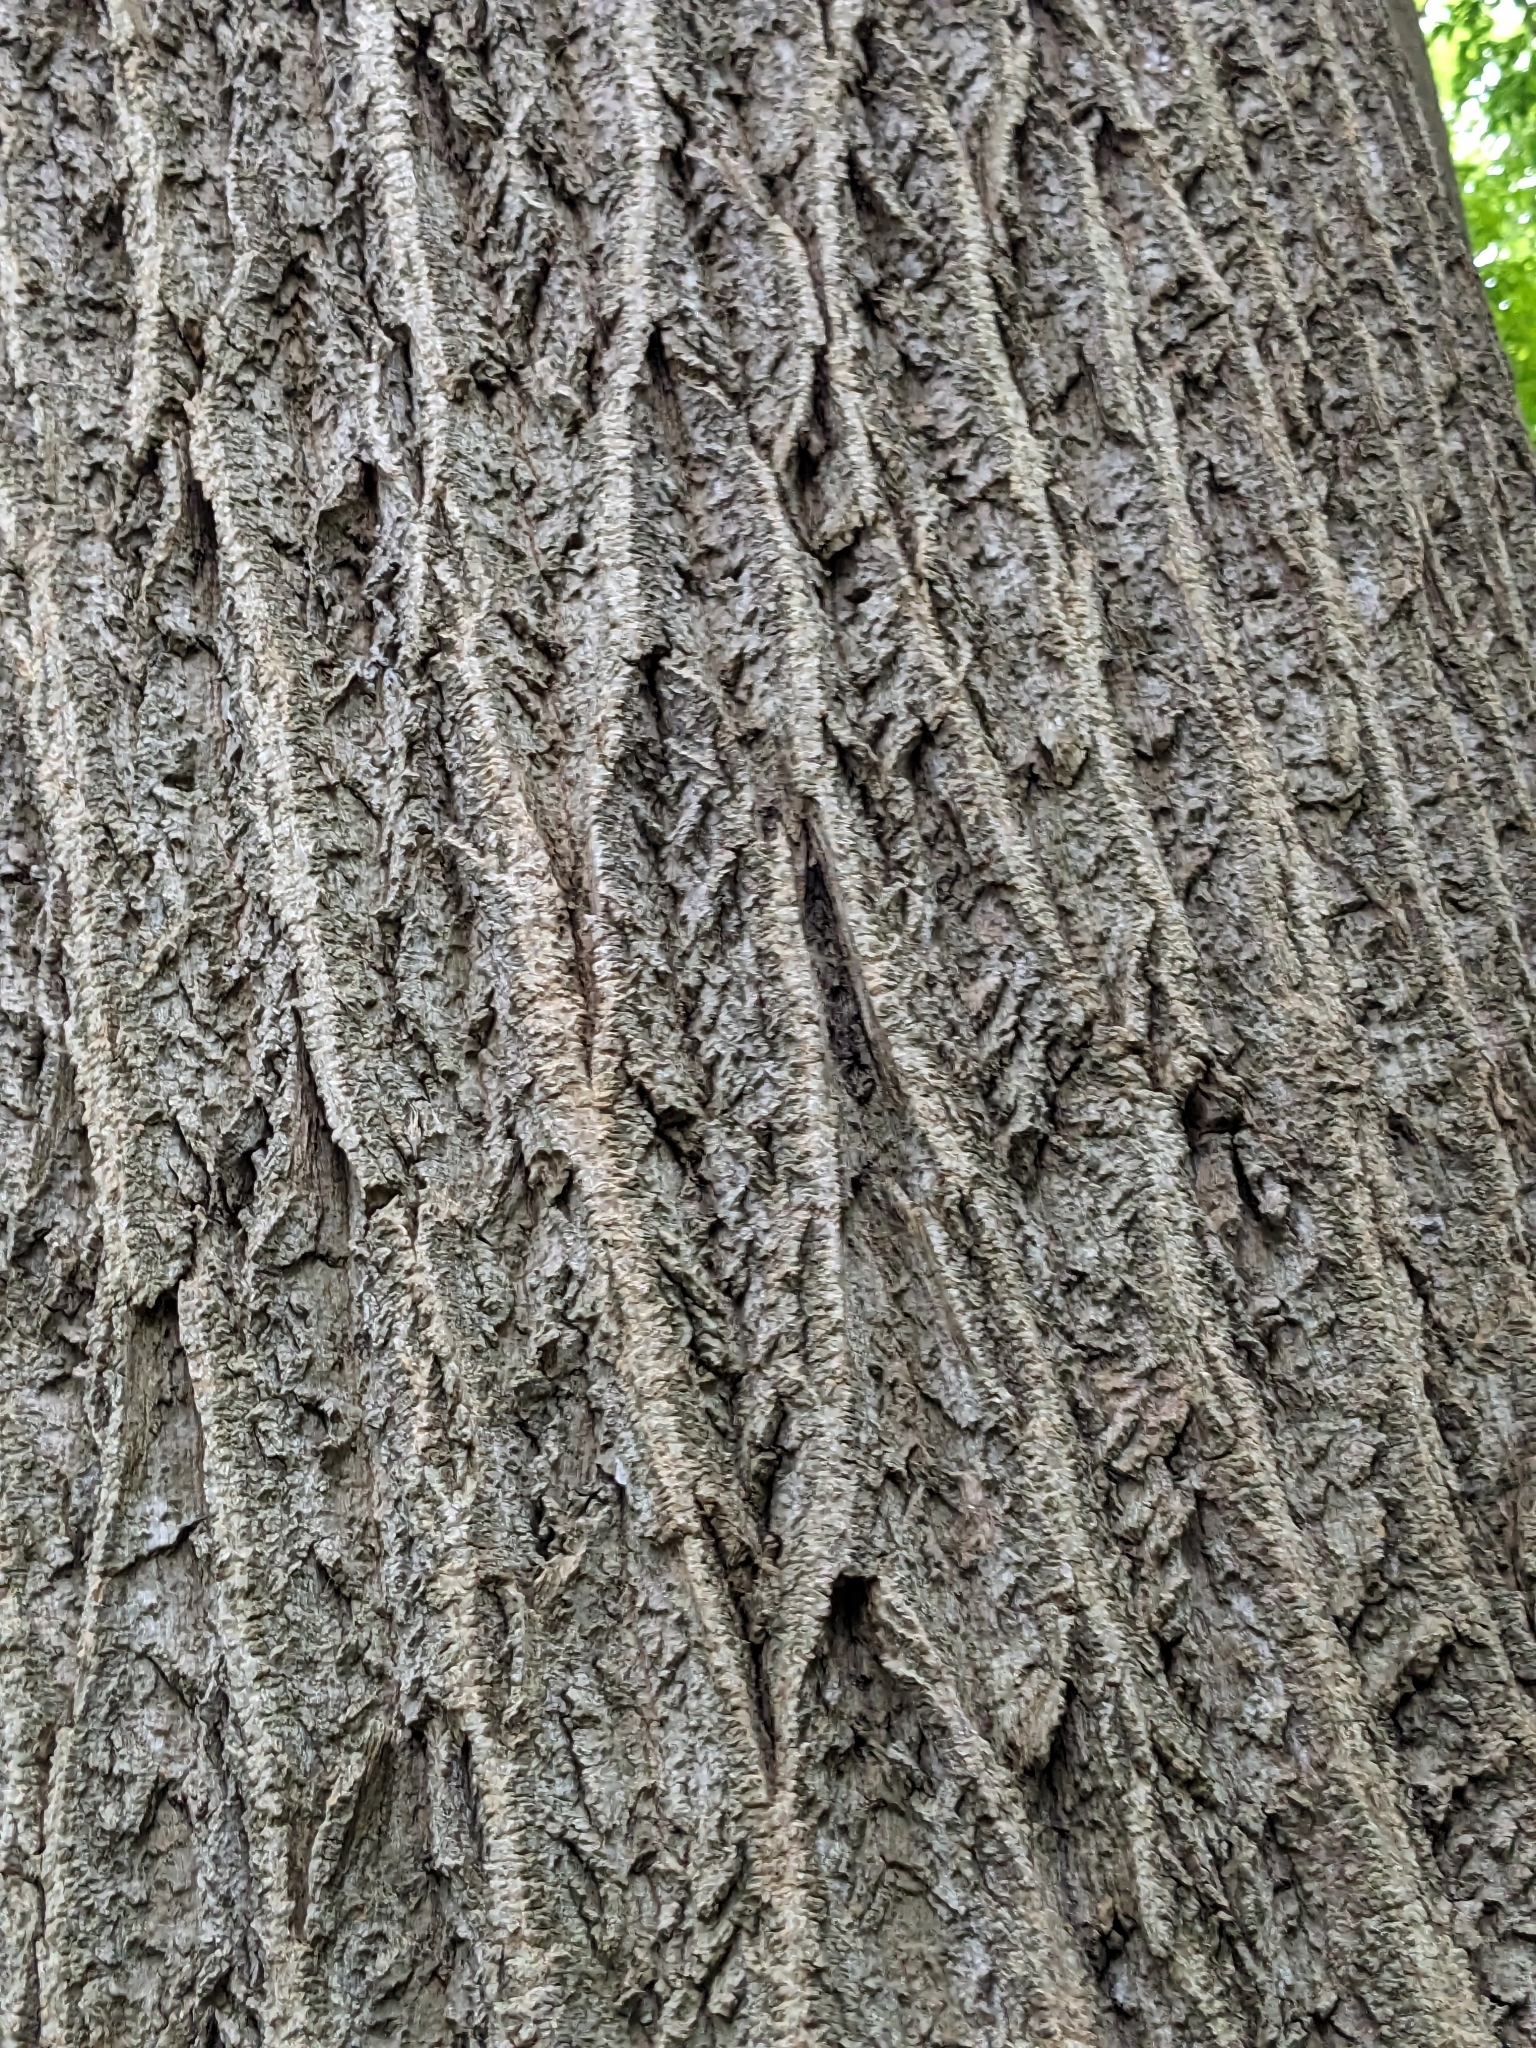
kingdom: Plantae
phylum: Tracheophyta
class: Magnoliopsida
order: Magnoliales
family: Magnoliaceae
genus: Liriodendron
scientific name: Liriodendron tulipifera
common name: Tulip tree
